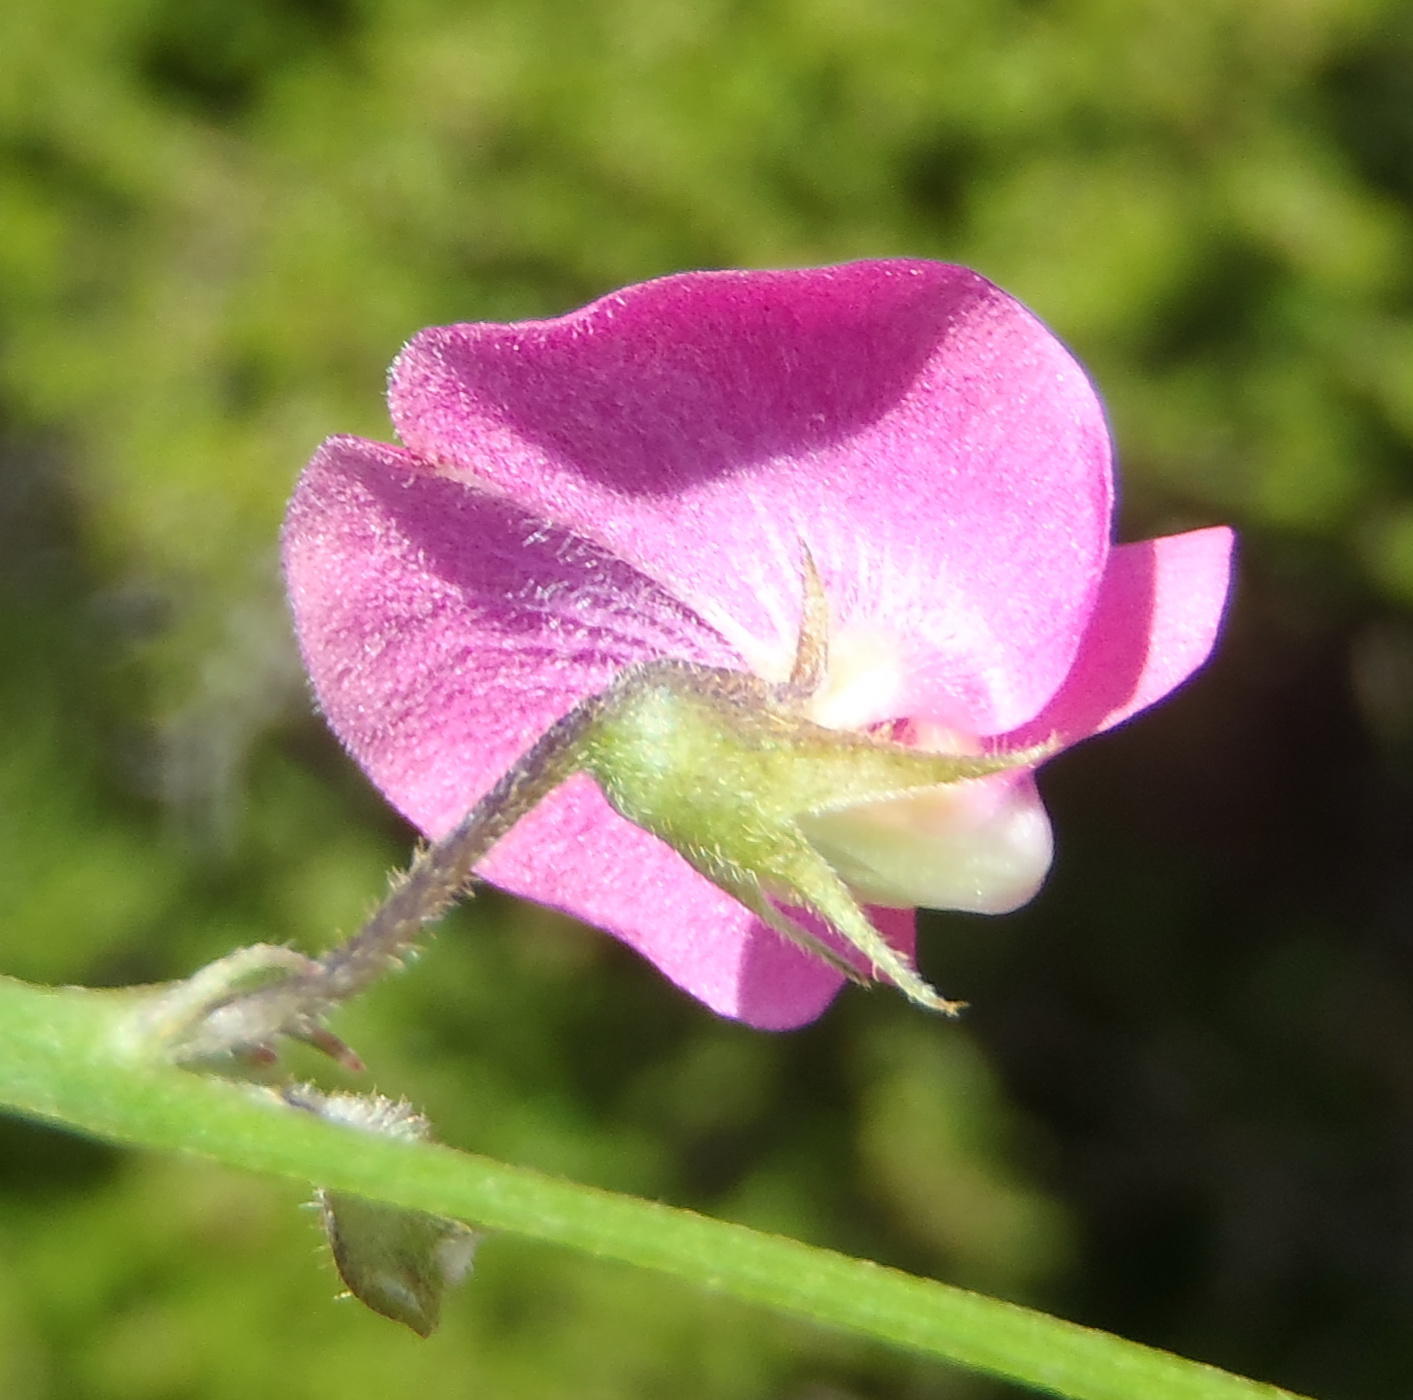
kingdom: Plantae
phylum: Tracheophyta
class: Magnoliopsida
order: Fabales
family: Fabaceae
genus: Tephrosia
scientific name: Tephrosia capensis
